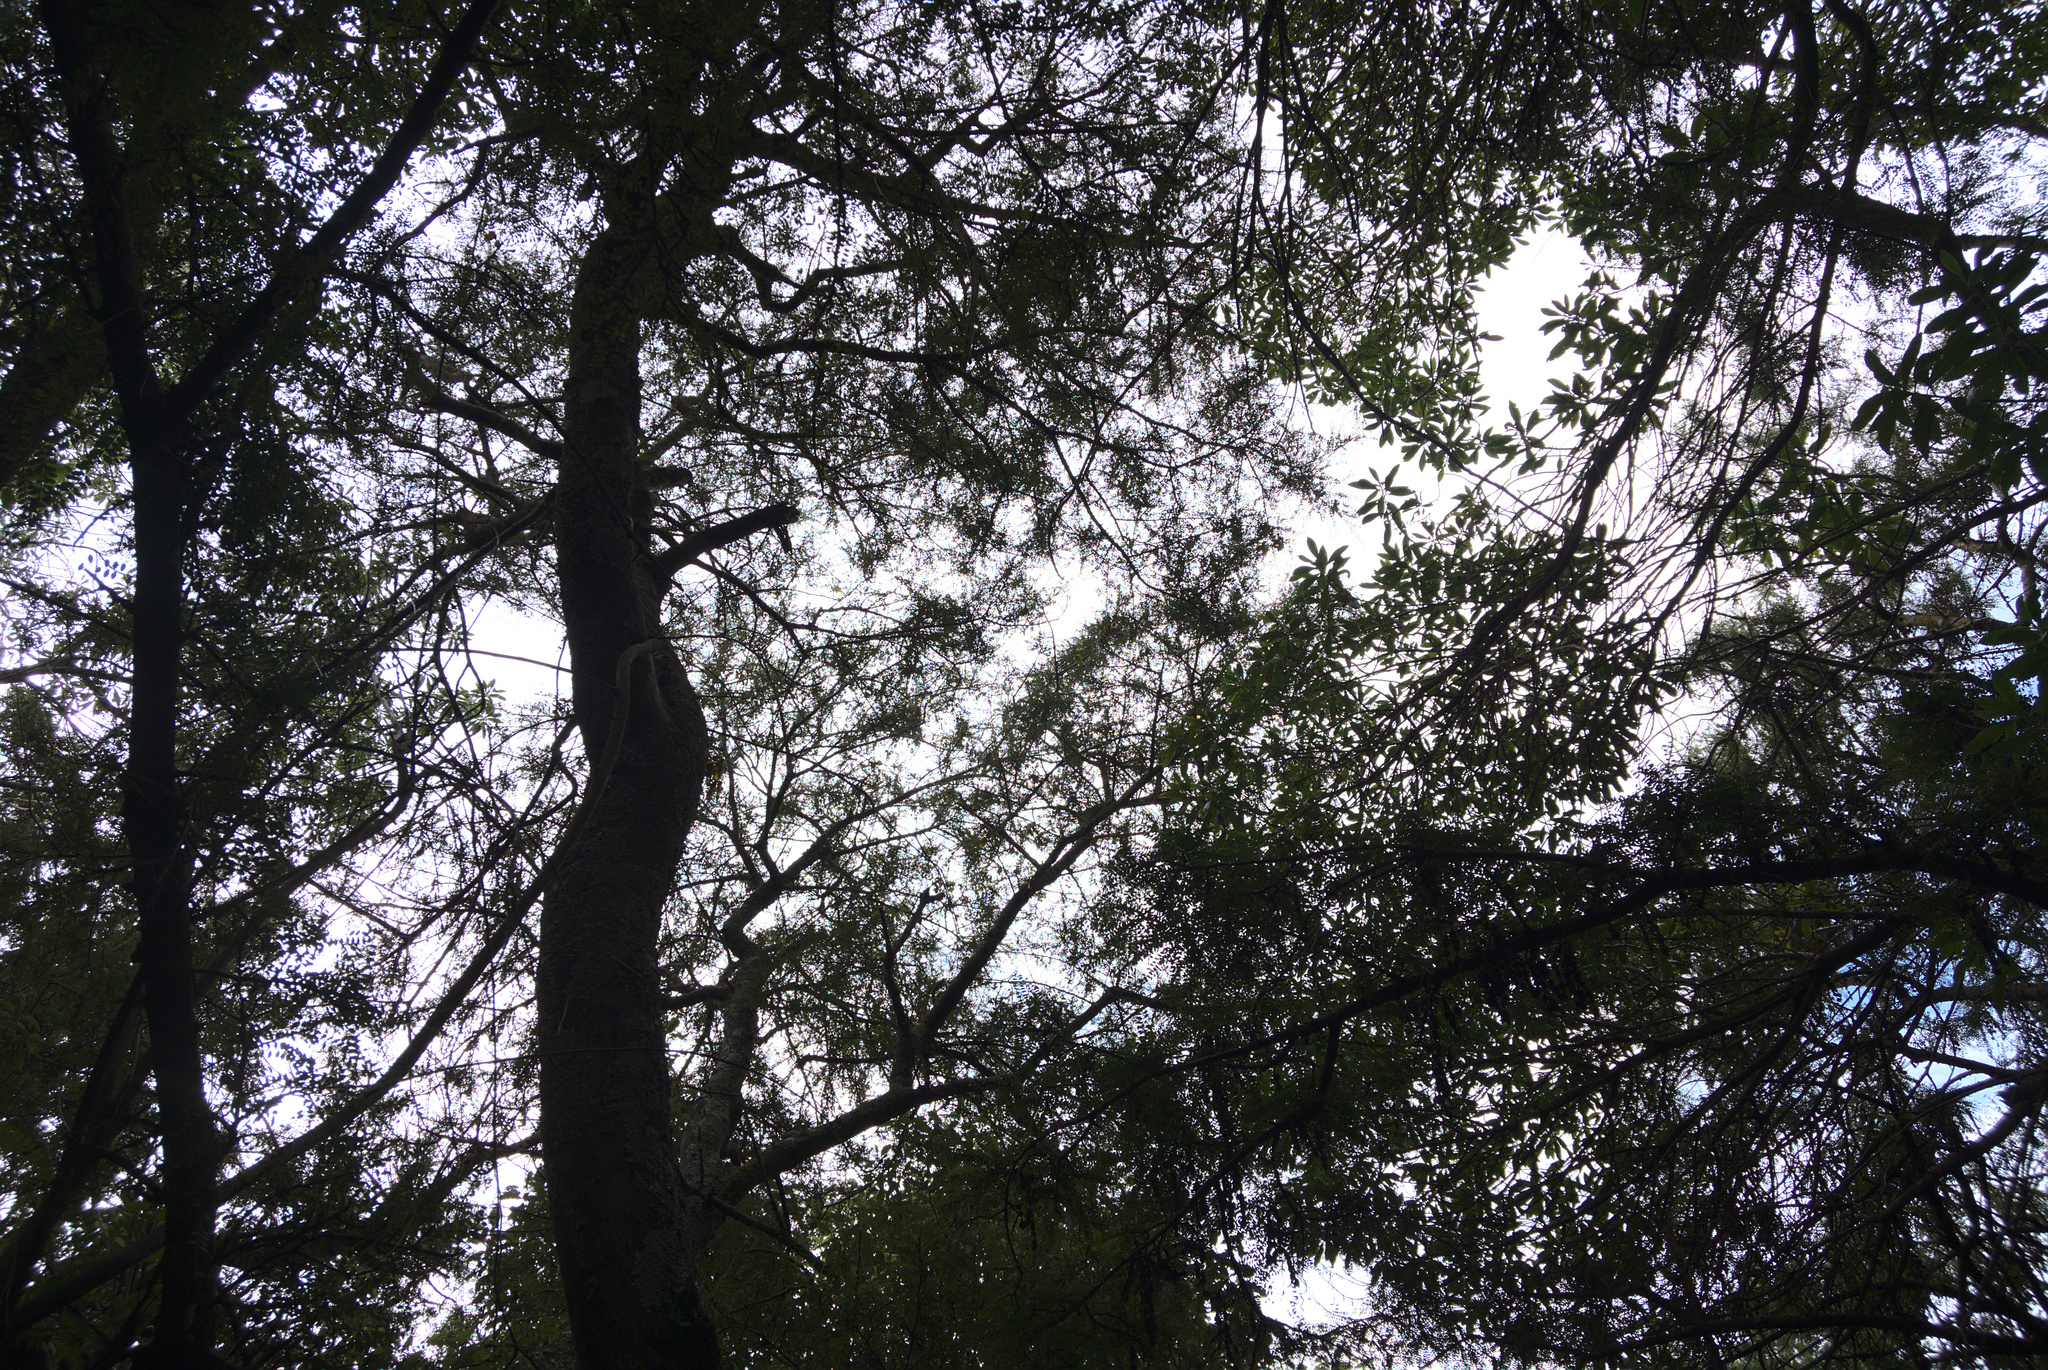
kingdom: Plantae
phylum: Tracheophyta
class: Magnoliopsida
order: Fabales
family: Fabaceae
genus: Sophora
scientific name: Sophora microphylla
